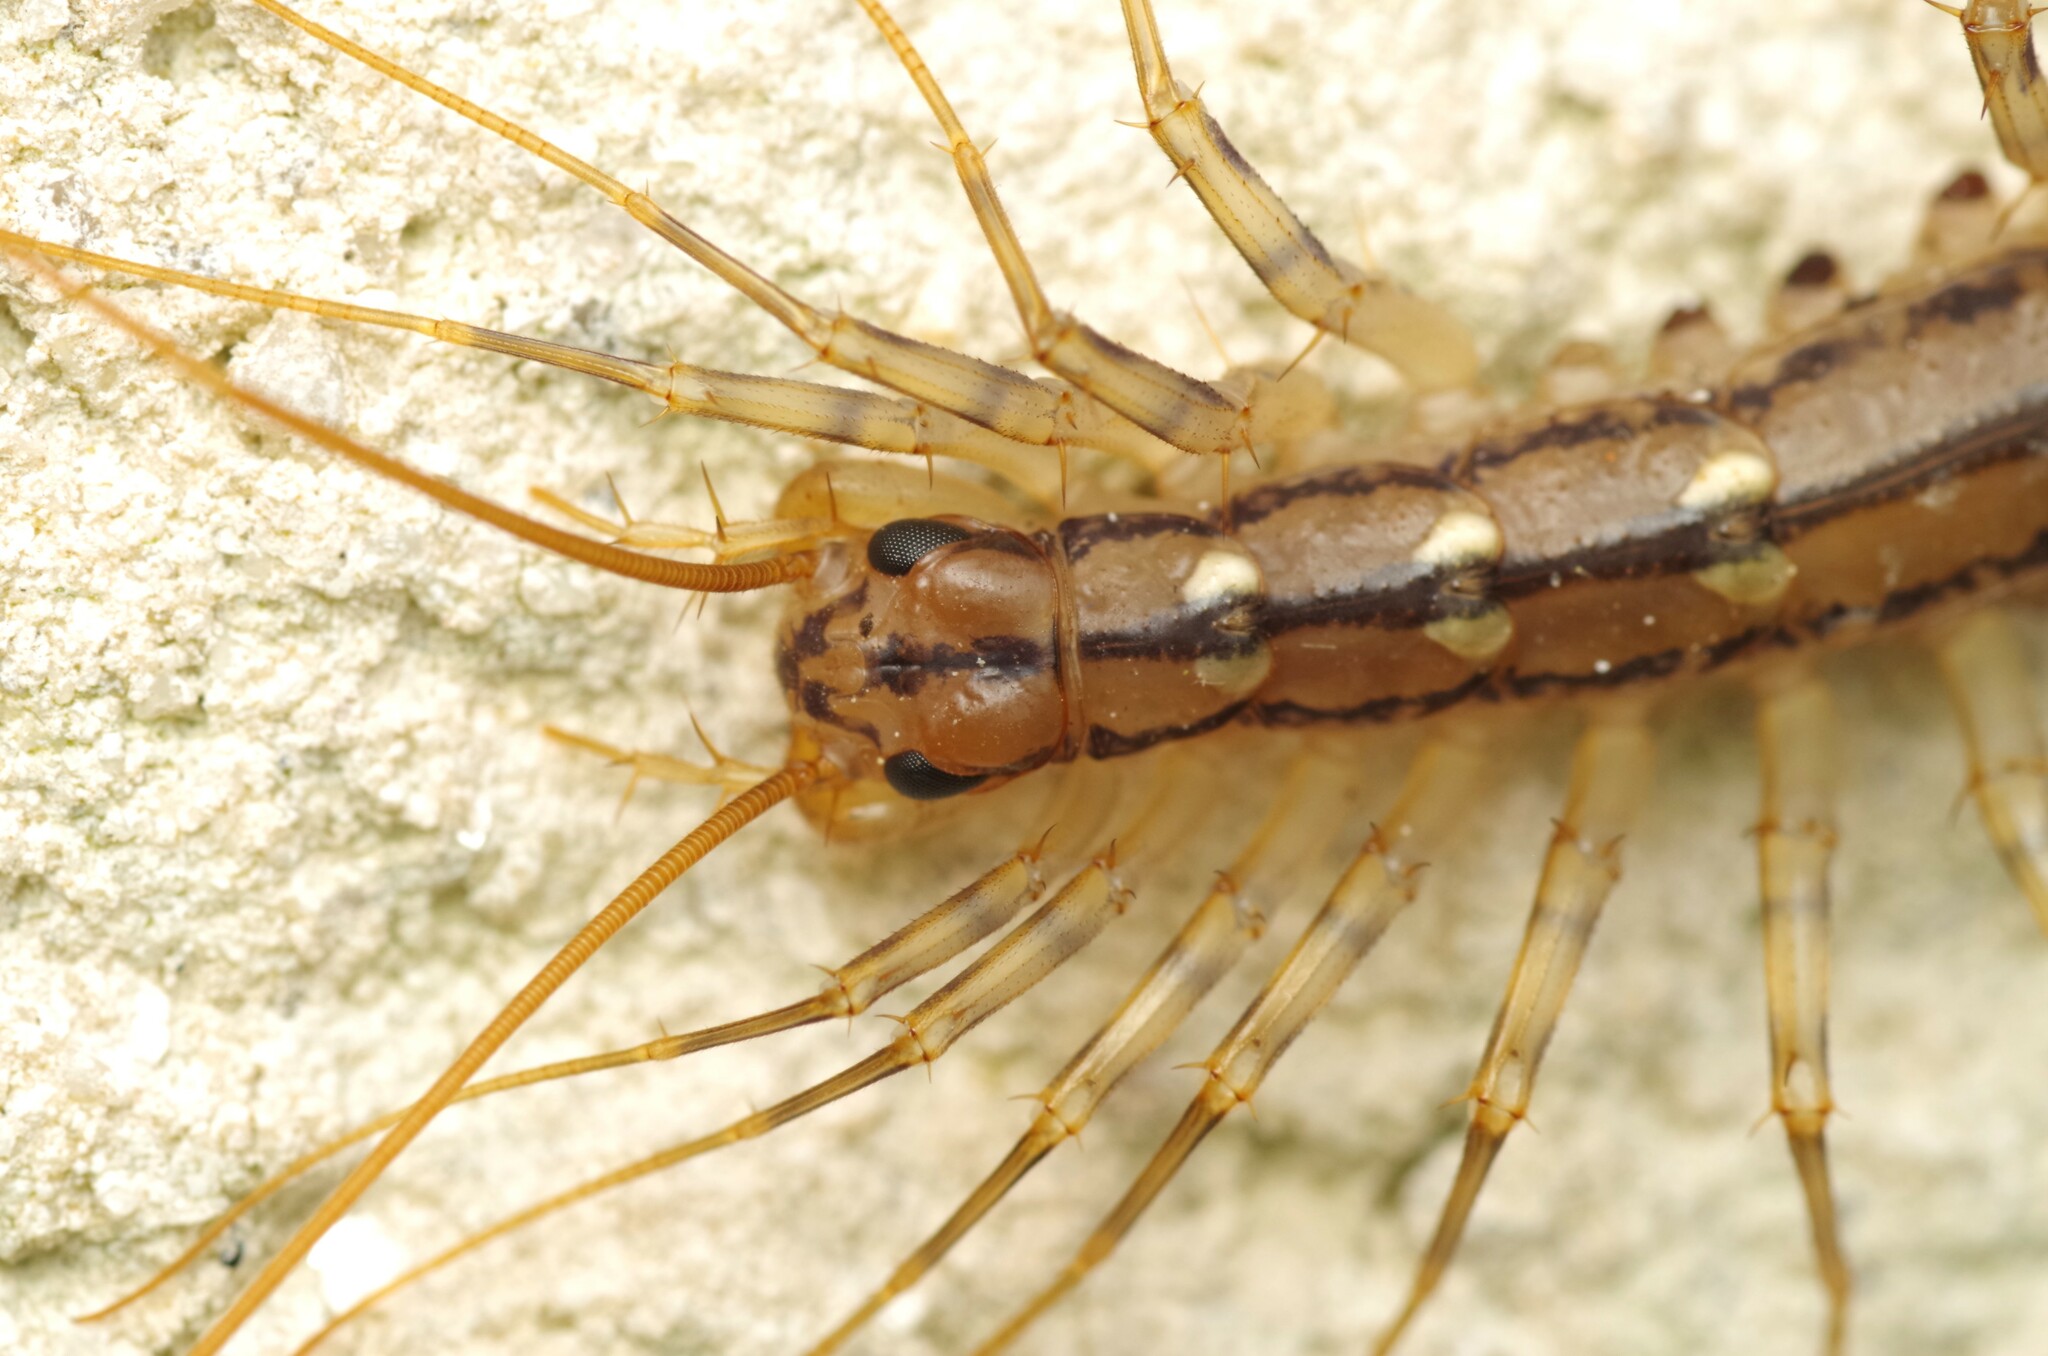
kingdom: Animalia
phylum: Arthropoda
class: Chilopoda
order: Scutigeromorpha
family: Scutigeridae
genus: Scutigera
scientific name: Scutigera coleoptrata
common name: House centipede
